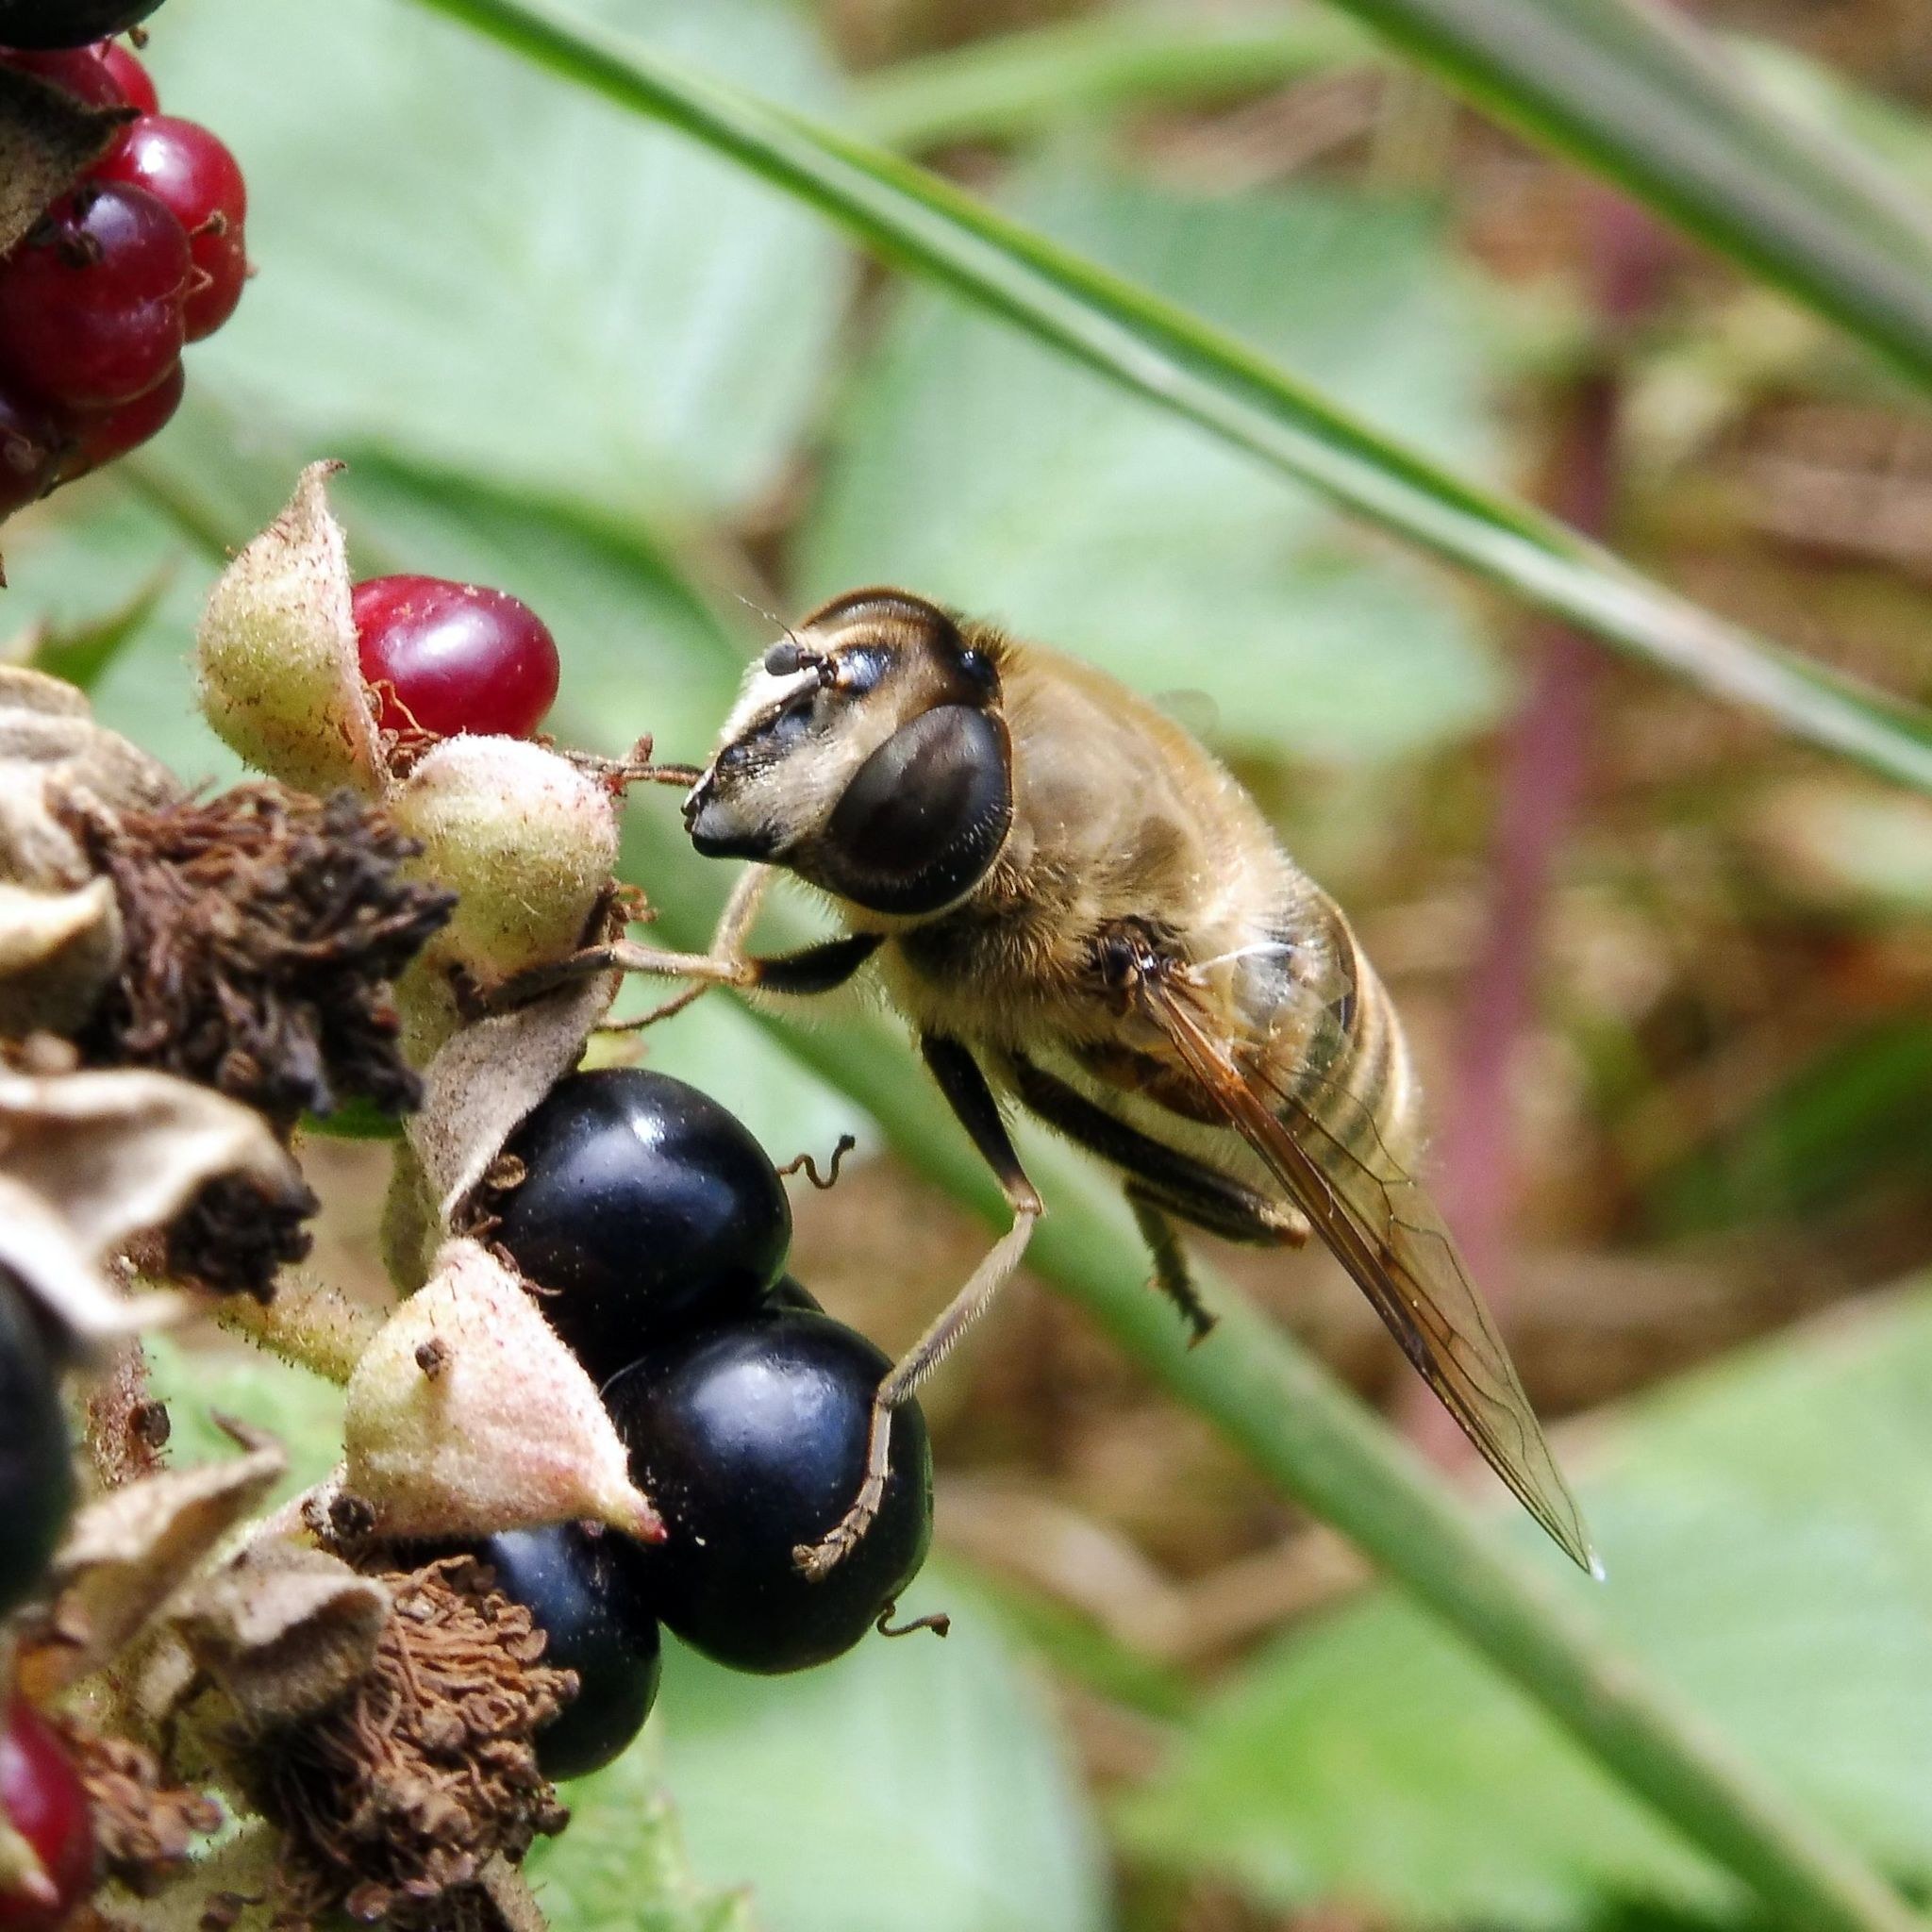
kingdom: Animalia
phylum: Arthropoda
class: Insecta
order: Diptera
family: Syrphidae
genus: Eristalis
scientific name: Eristalis tenax
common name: Drone fly
